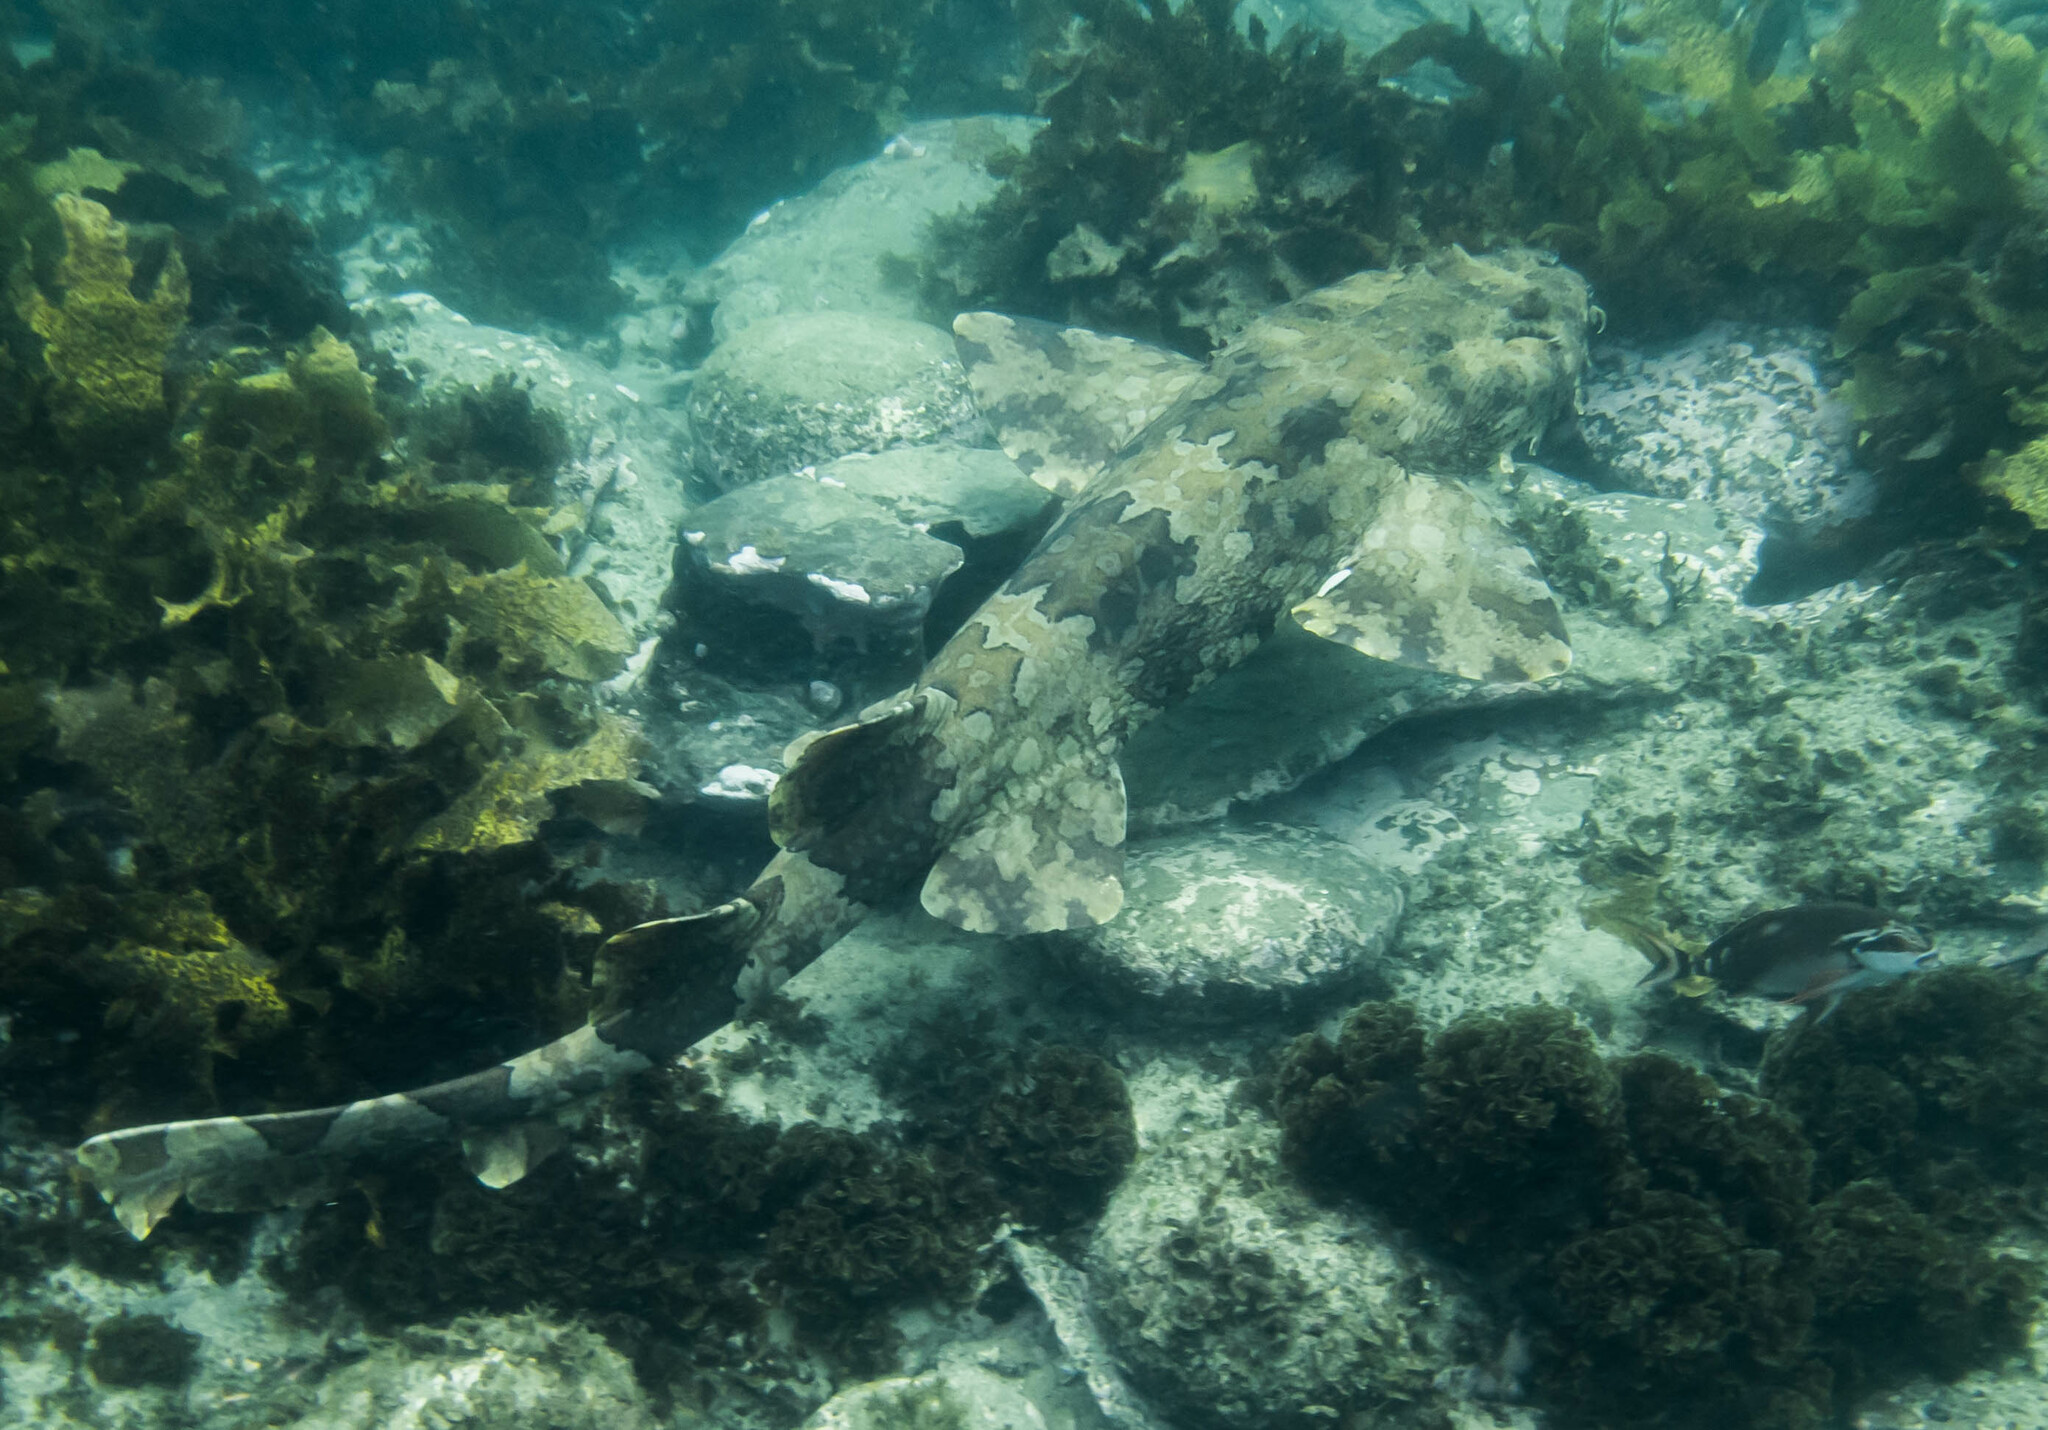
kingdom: Animalia
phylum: Chordata
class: Elasmobranchii
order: Orectolobiformes
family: Orectolobidae
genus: Orectolobus
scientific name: Orectolobus halei
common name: Banded wobbegong
